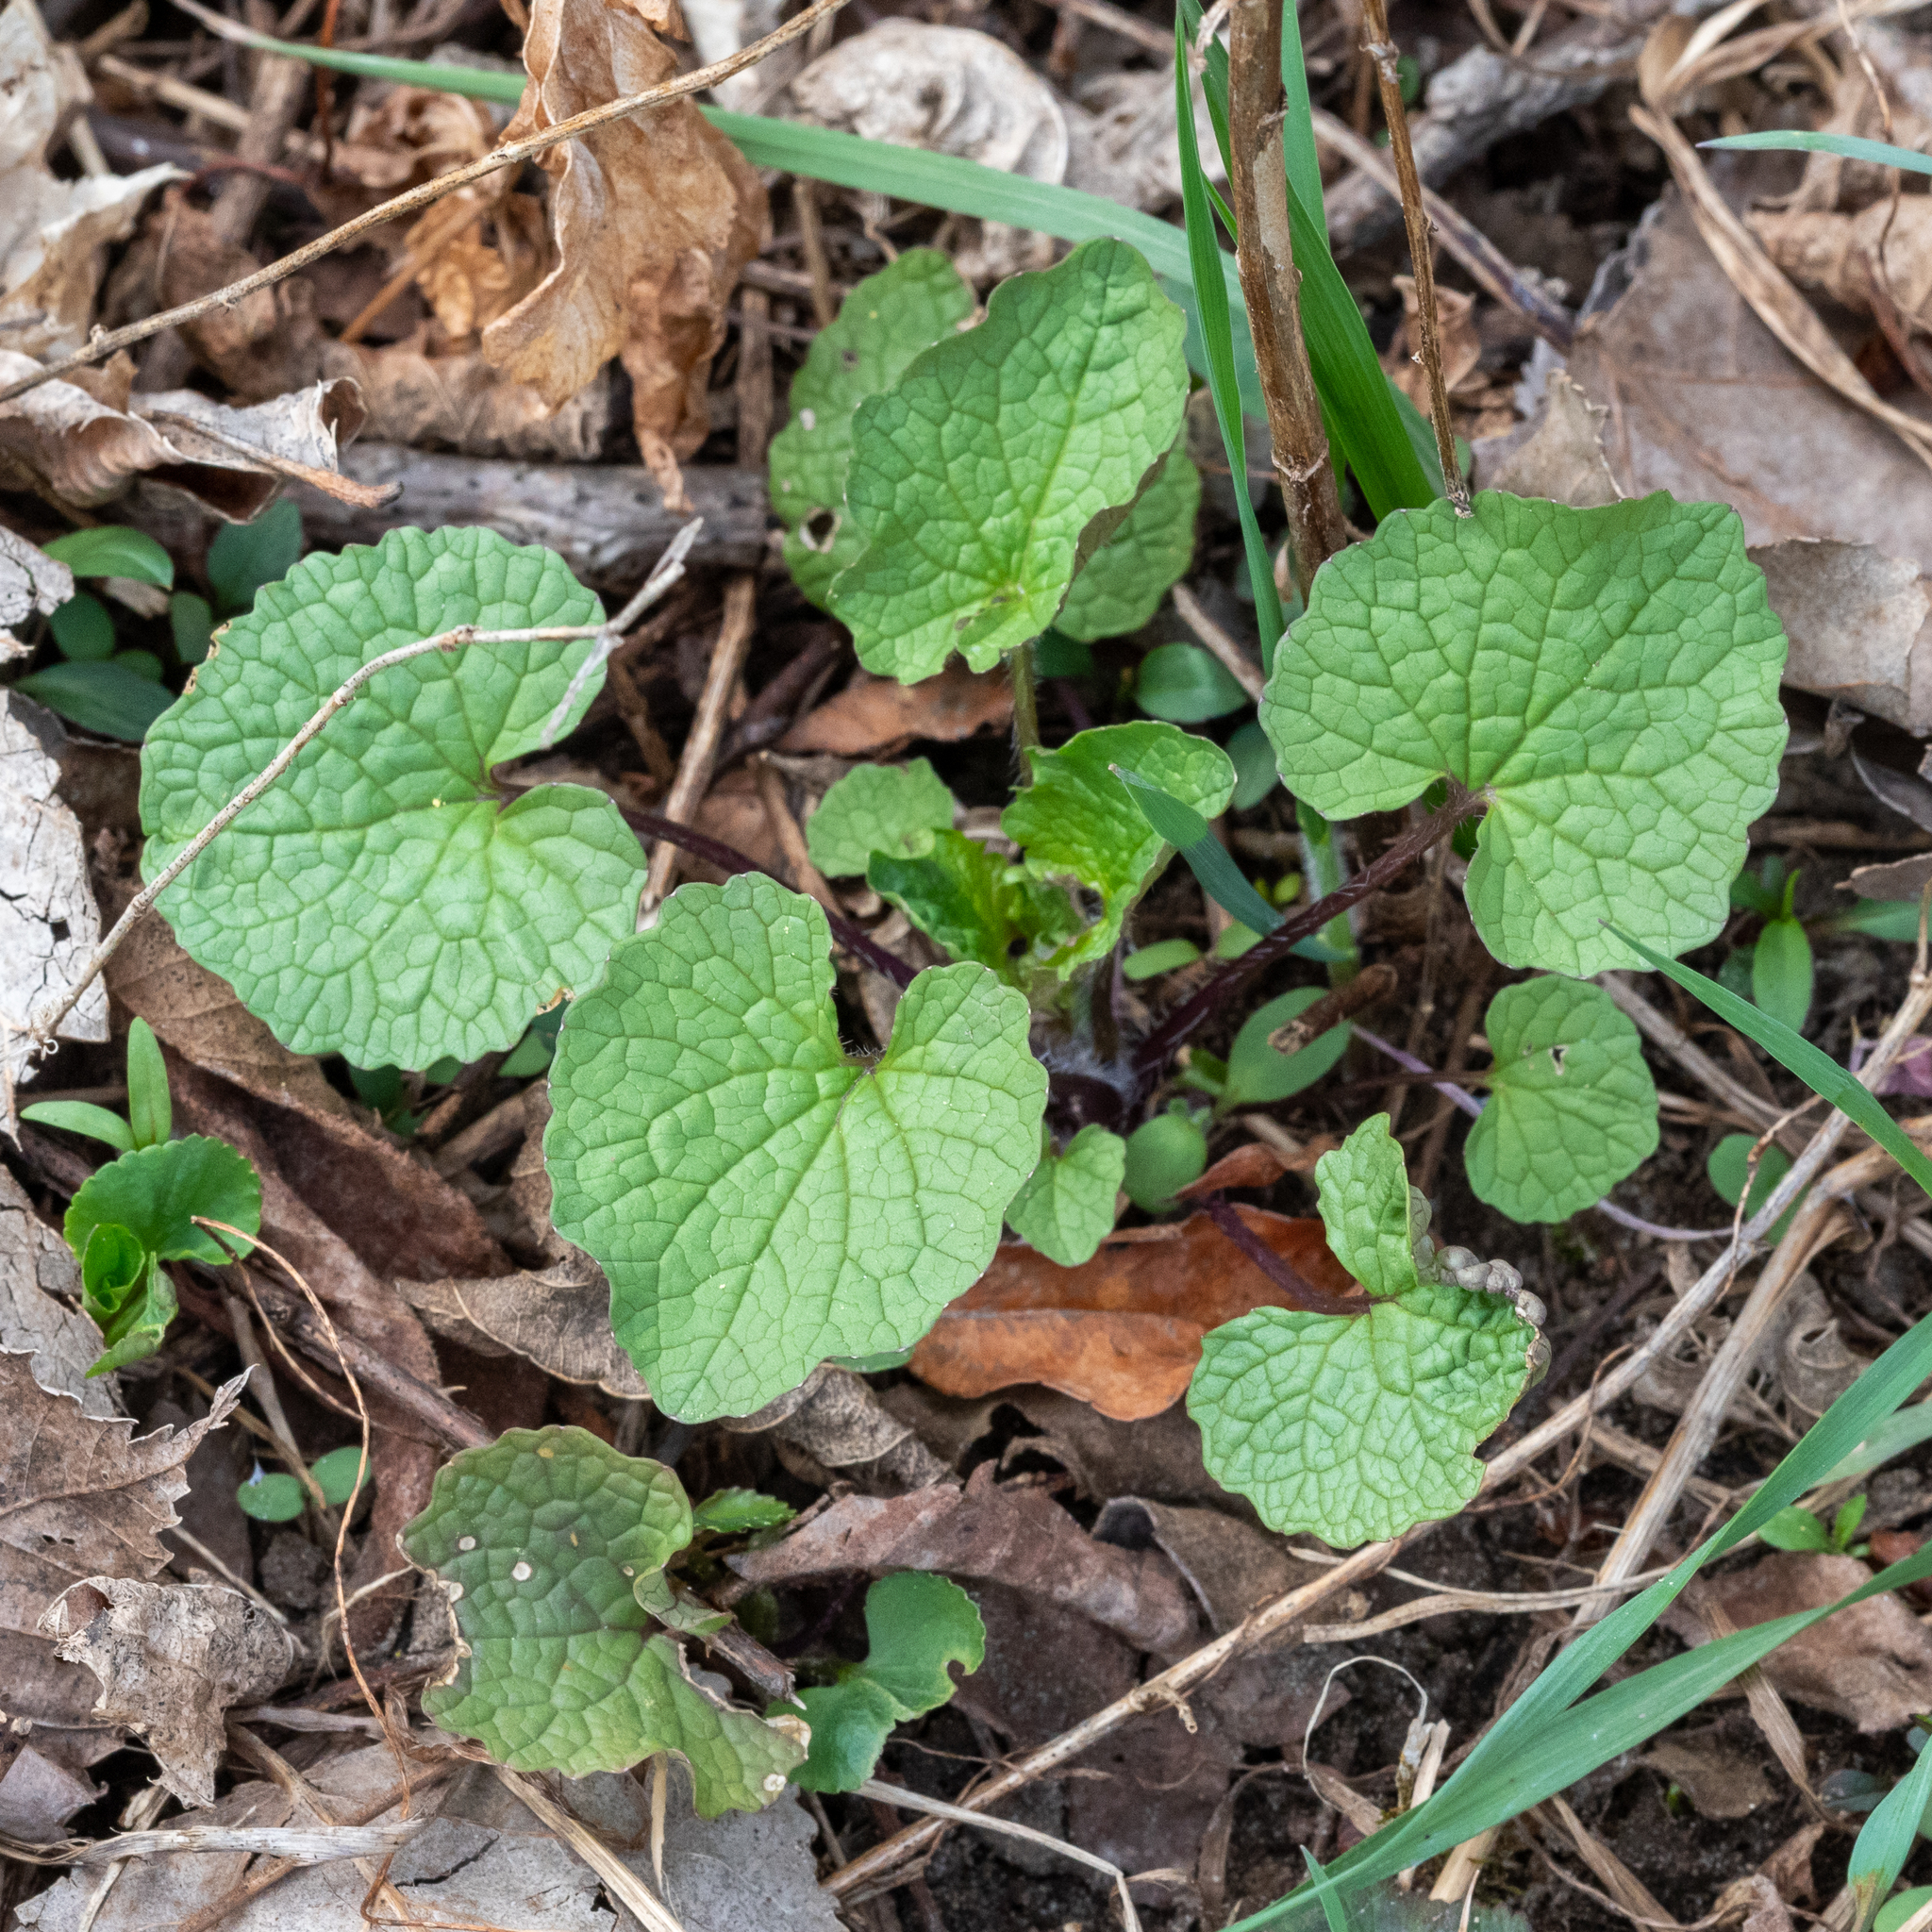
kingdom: Plantae
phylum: Tracheophyta
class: Magnoliopsida
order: Brassicales
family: Brassicaceae
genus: Alliaria
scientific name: Alliaria petiolata
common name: Garlic mustard
